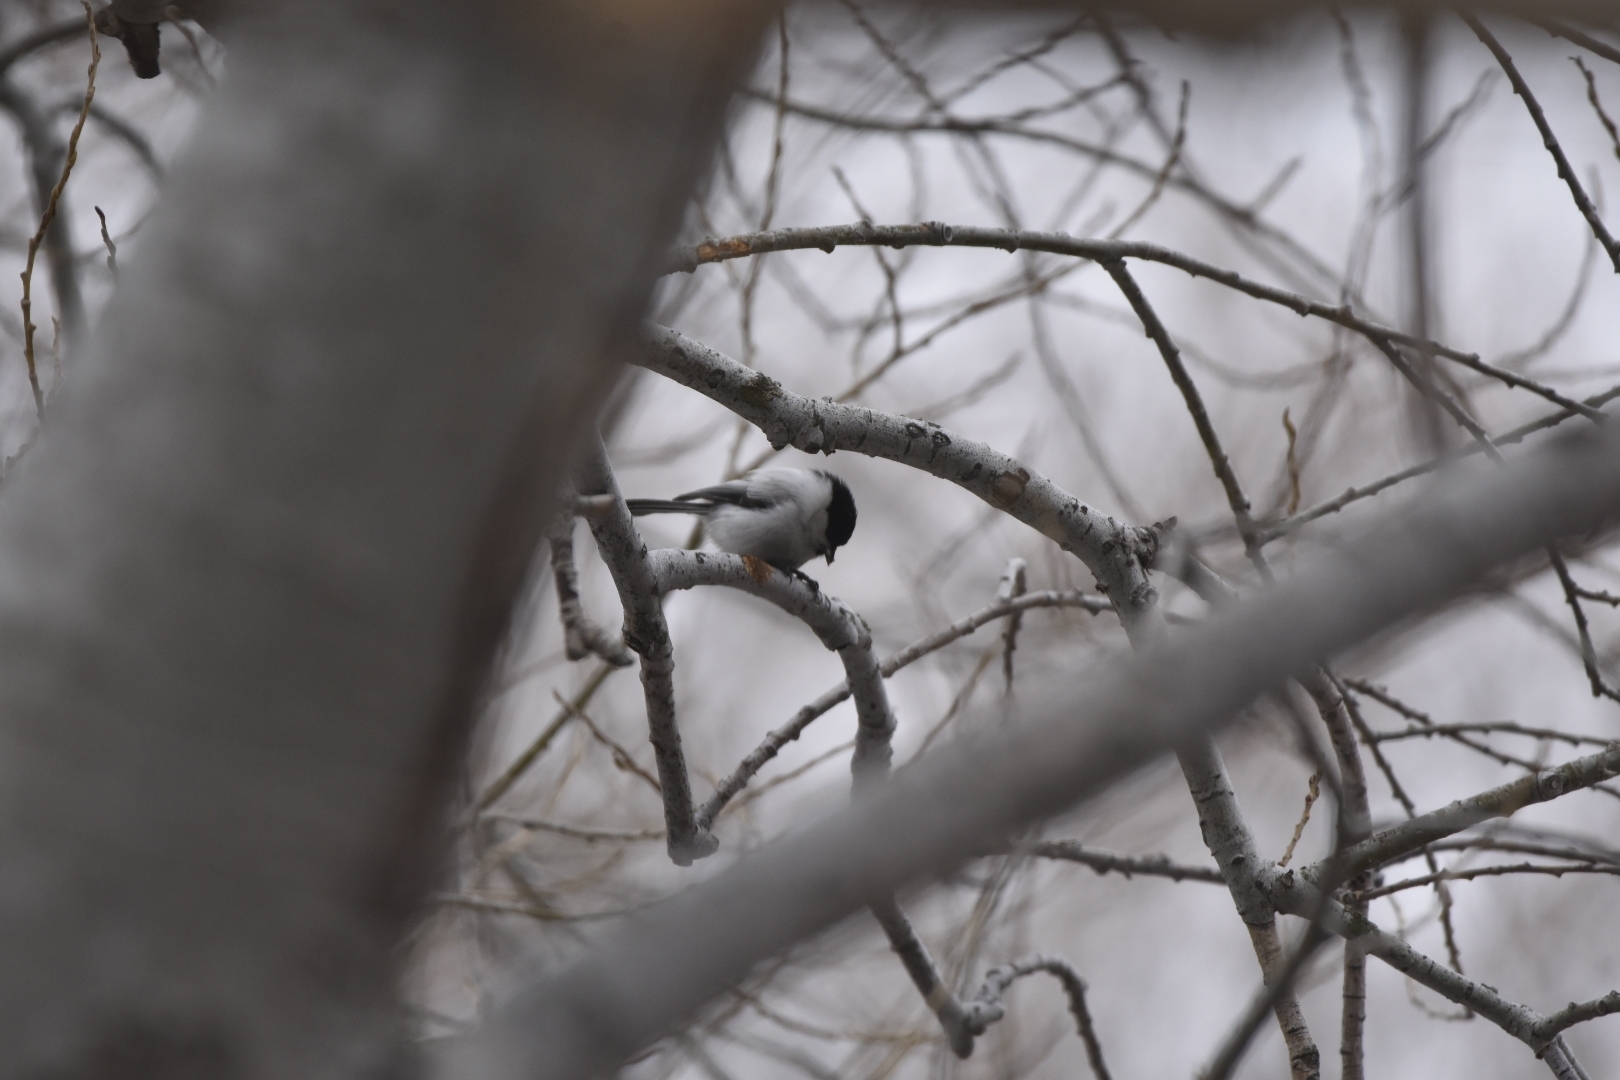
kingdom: Animalia
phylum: Chordata
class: Aves
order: Passeriformes
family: Paridae
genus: Poecile
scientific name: Poecile montanus
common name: Willow tit
